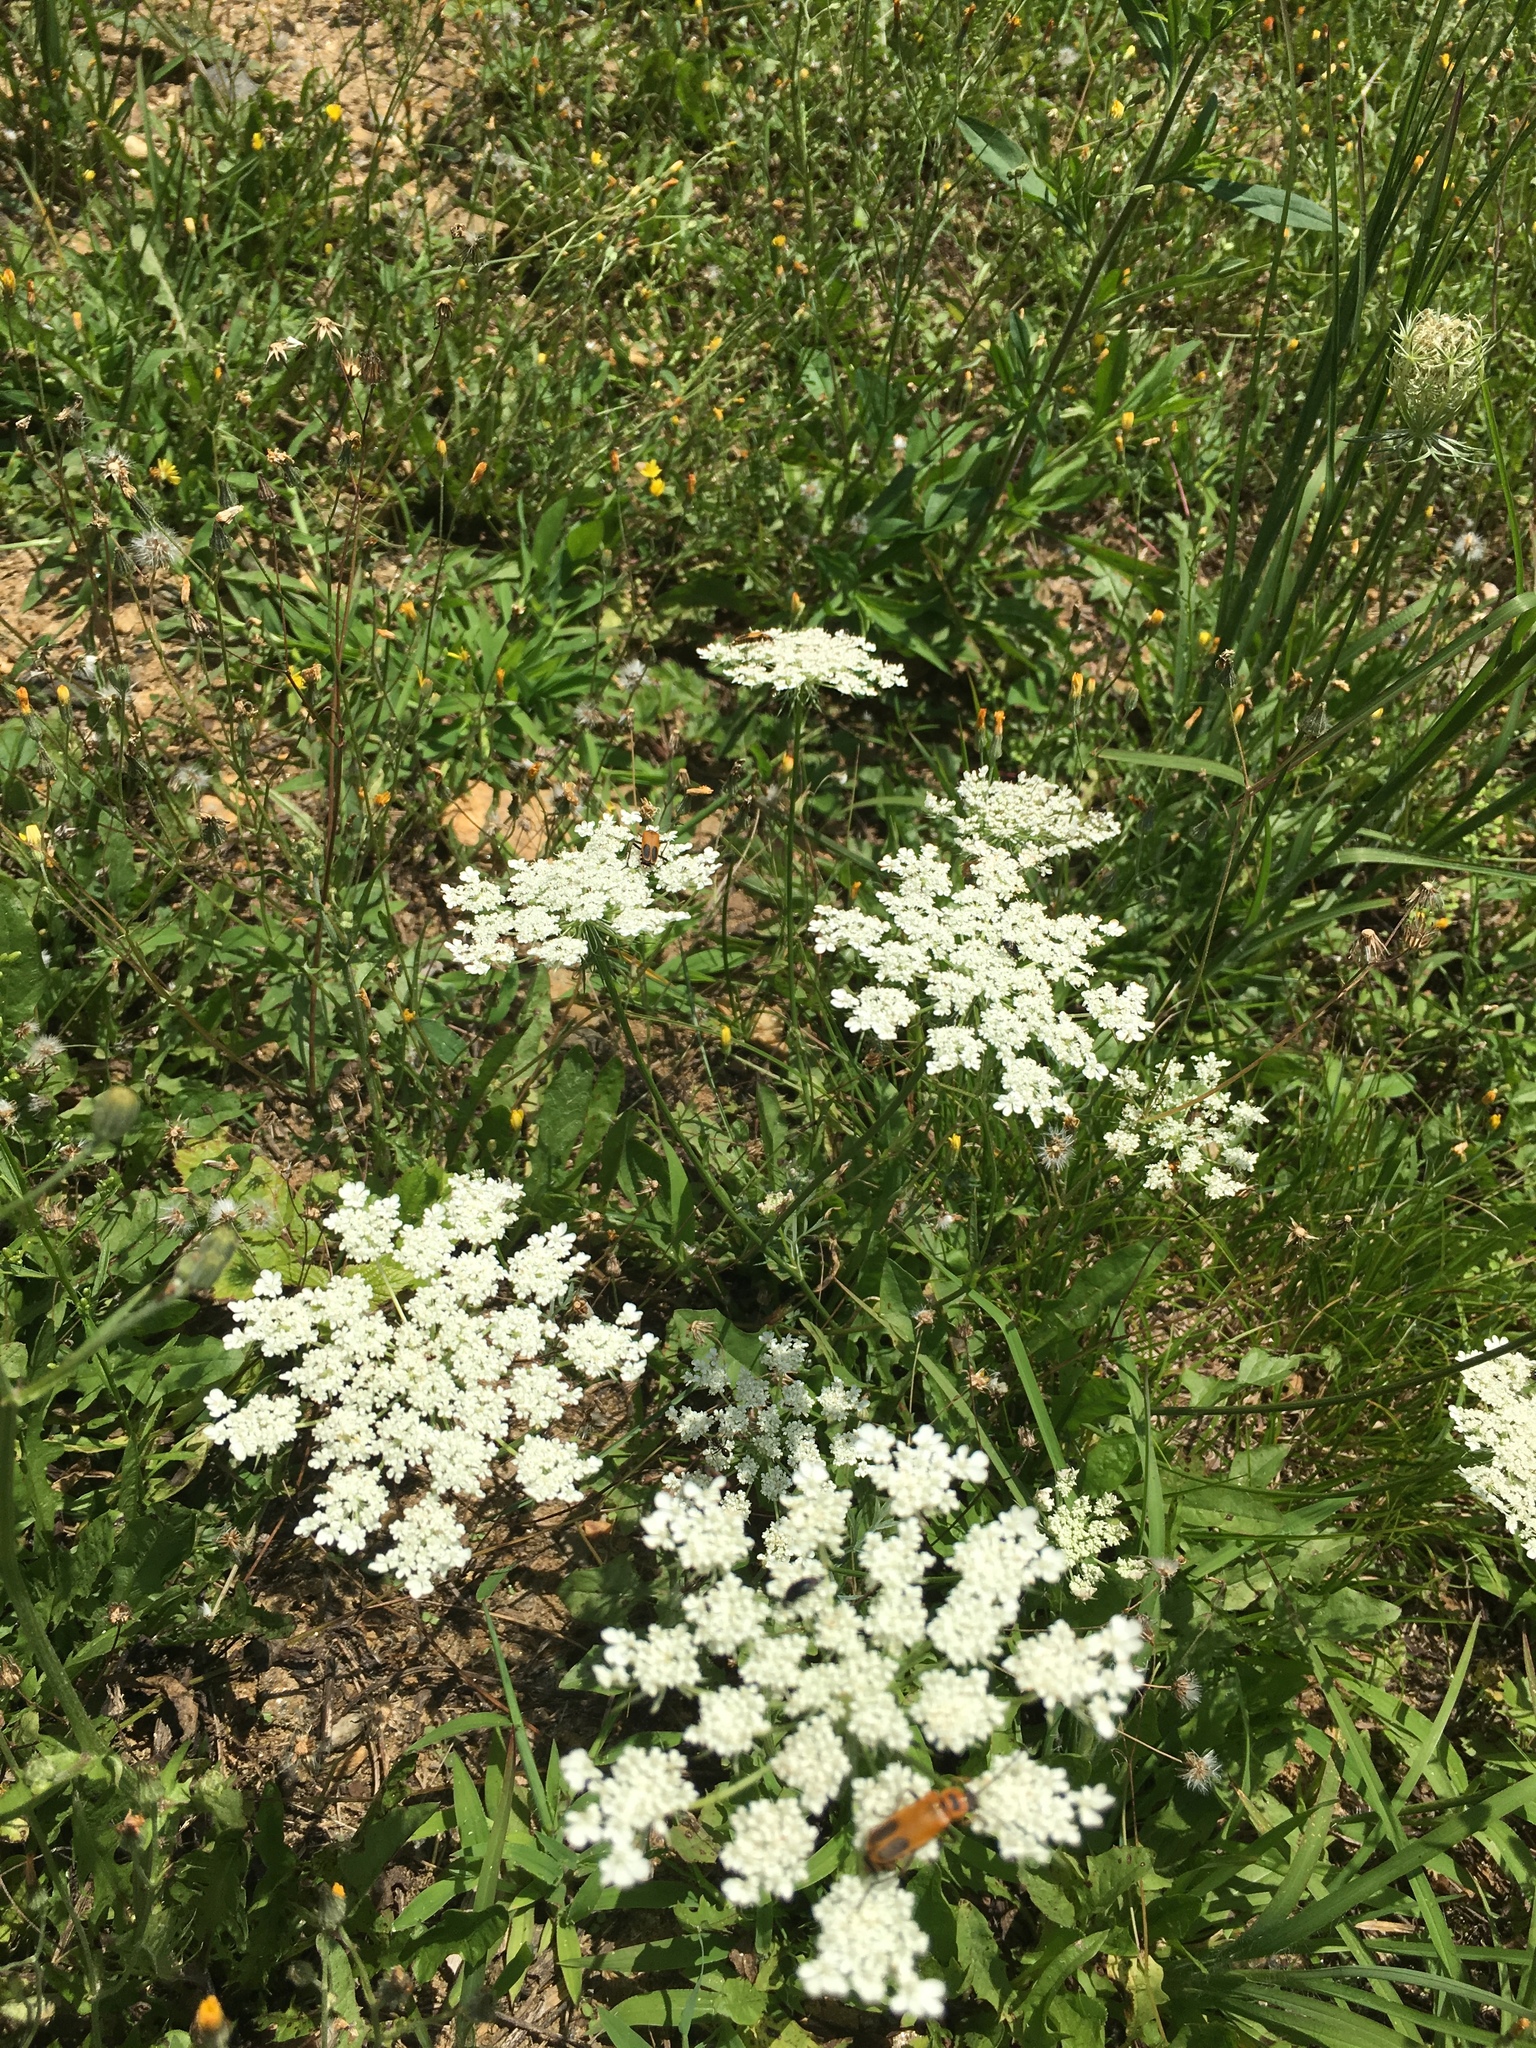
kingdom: Animalia
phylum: Arthropoda
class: Insecta
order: Coleoptera
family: Cantharidae
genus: Chauliognathus
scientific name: Chauliognathus pensylvanicus
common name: Goldenrod soldier beetle
